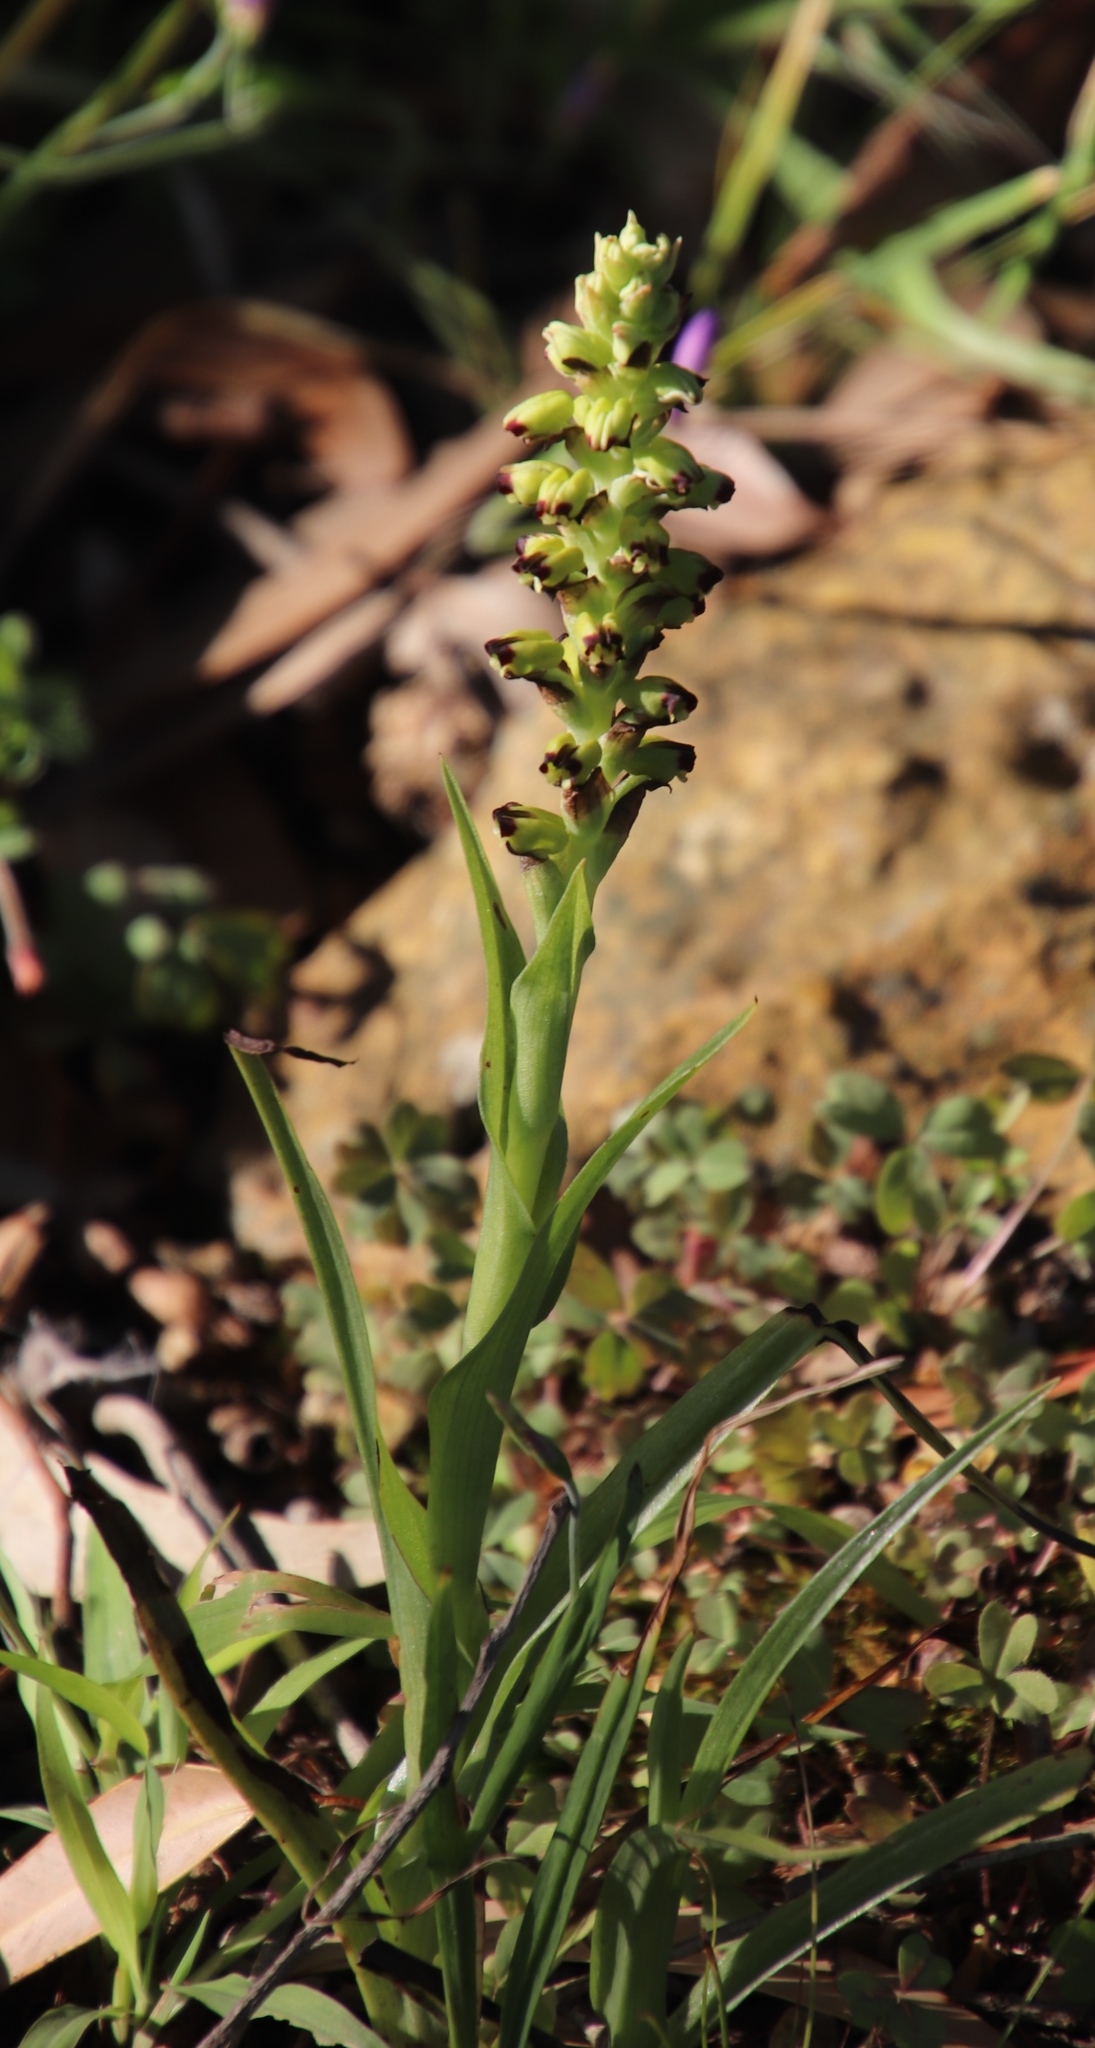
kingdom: Plantae
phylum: Tracheophyta
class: Liliopsida
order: Asparagales
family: Orchidaceae
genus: Corycium
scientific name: Corycium orobanchoides
